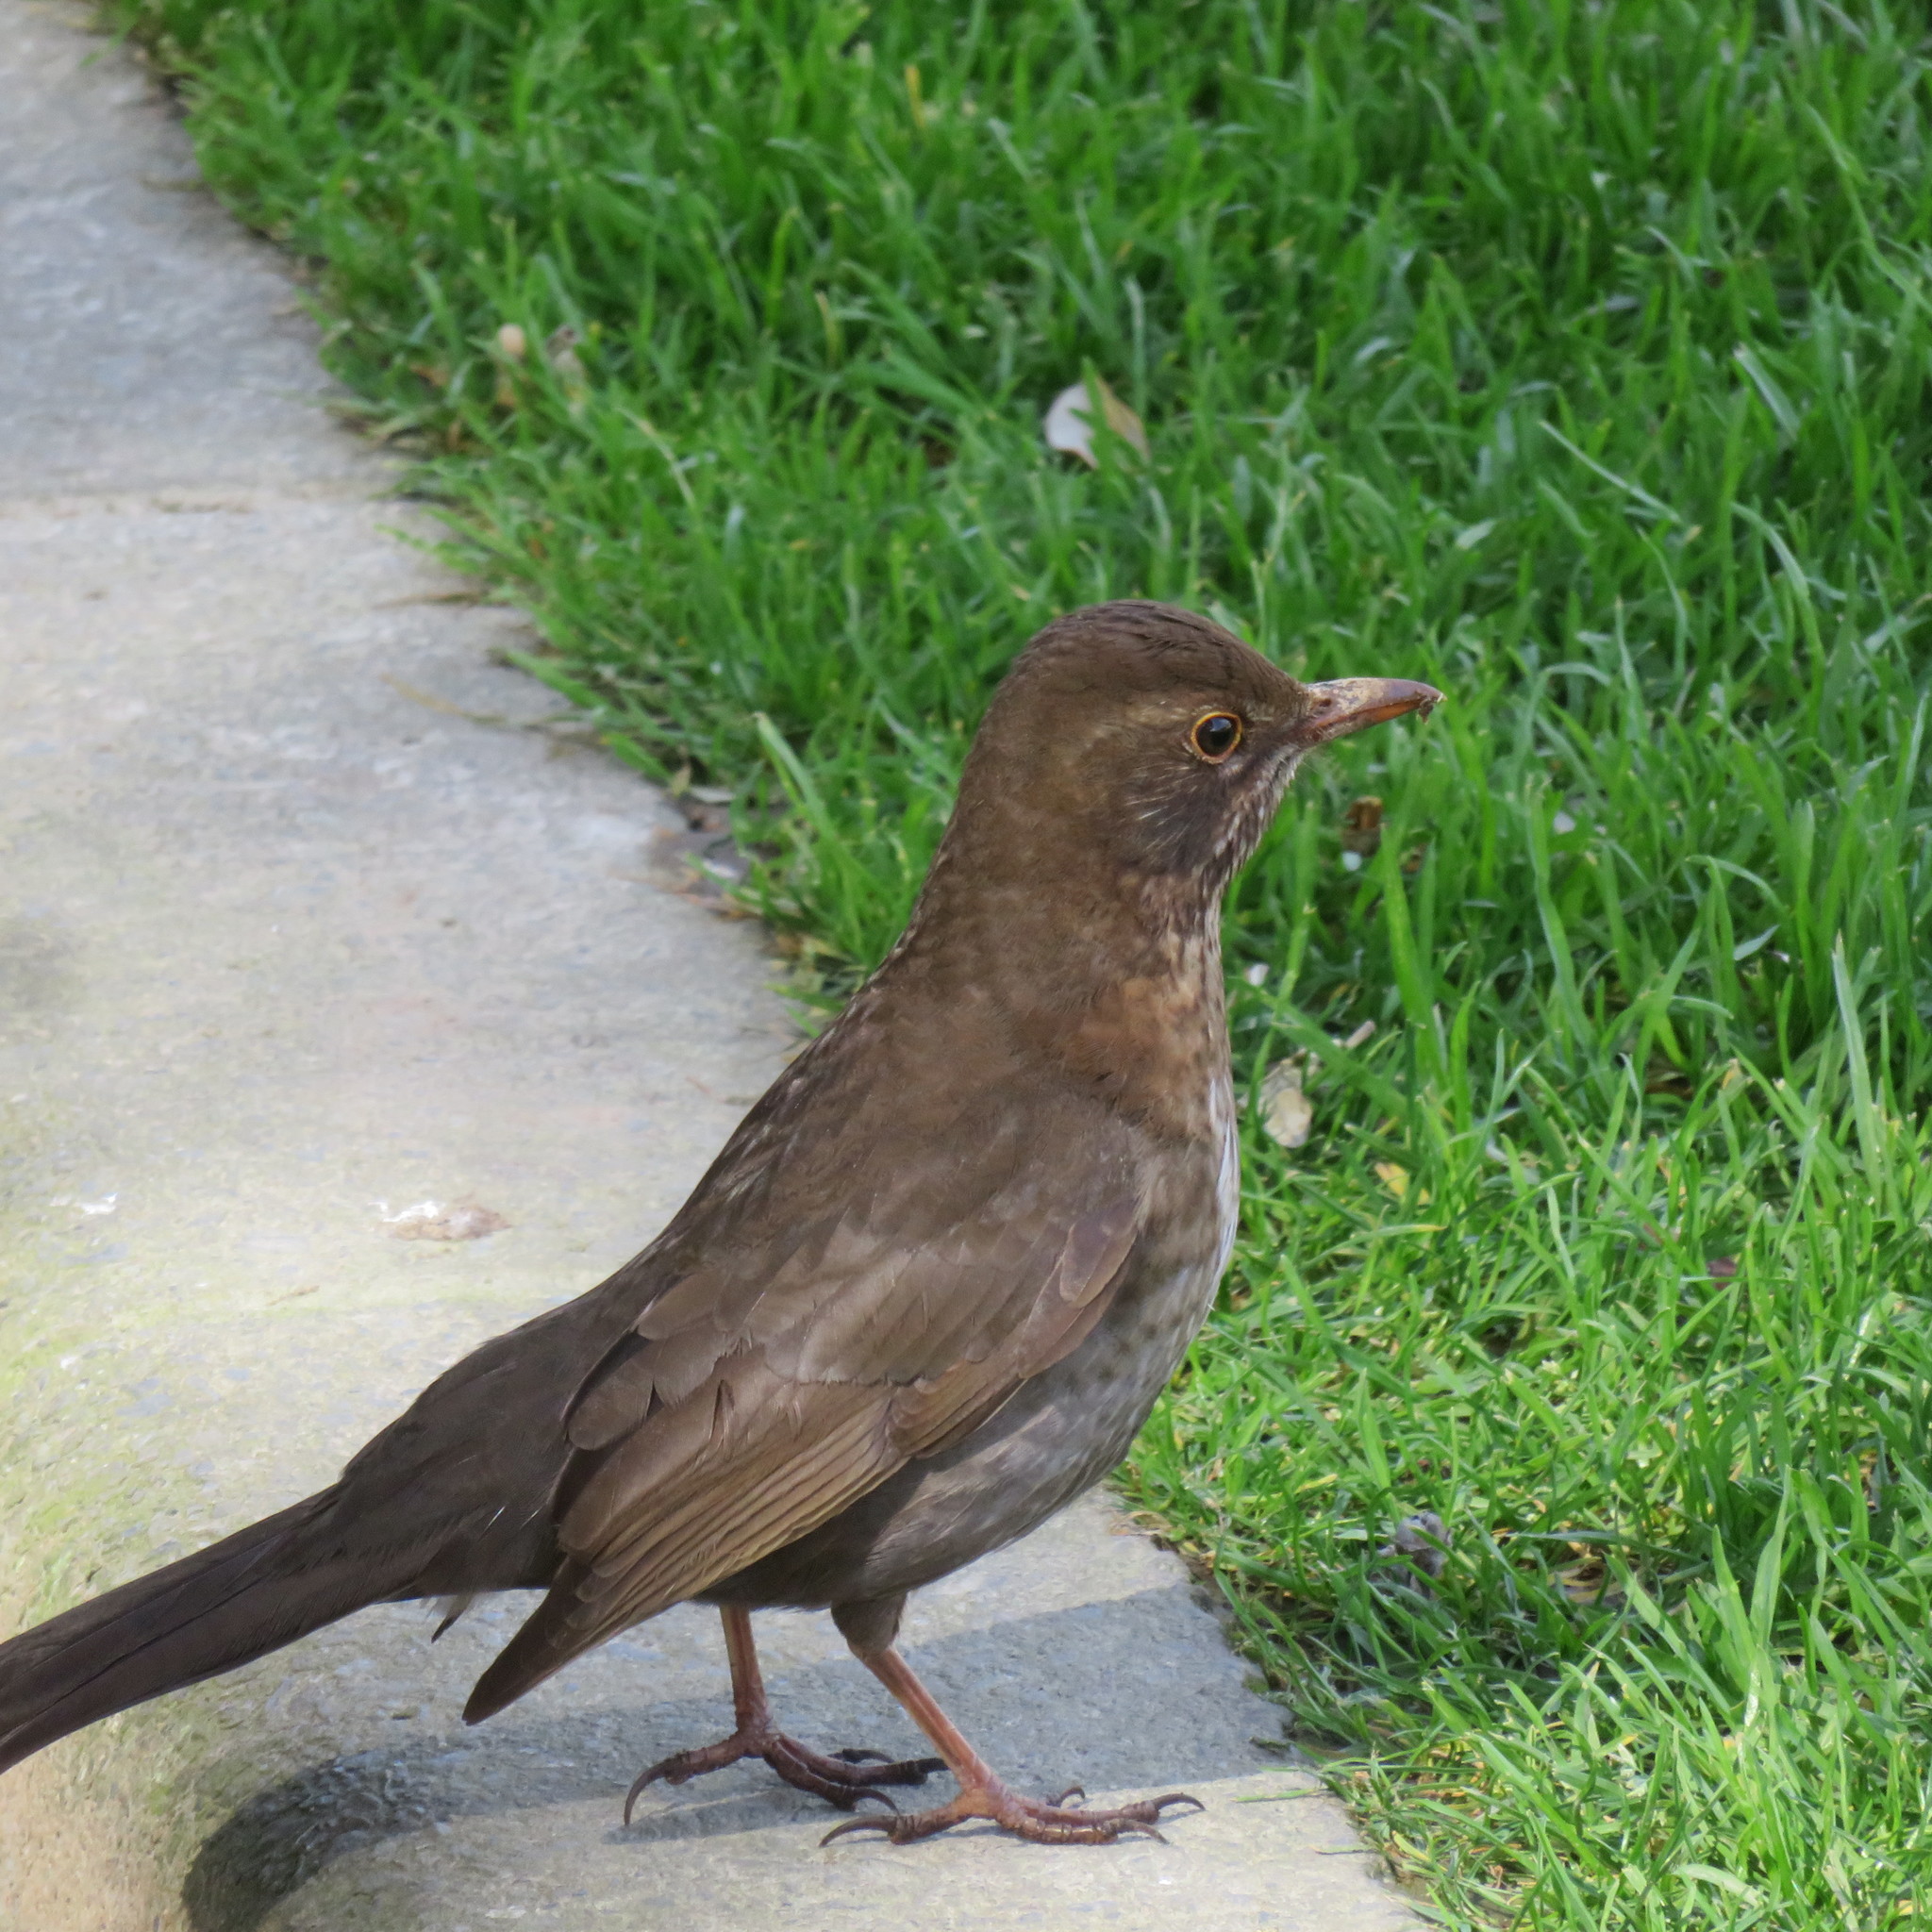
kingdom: Animalia
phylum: Chordata
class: Aves
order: Passeriformes
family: Turdidae
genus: Turdus
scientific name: Turdus merula
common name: Common blackbird
